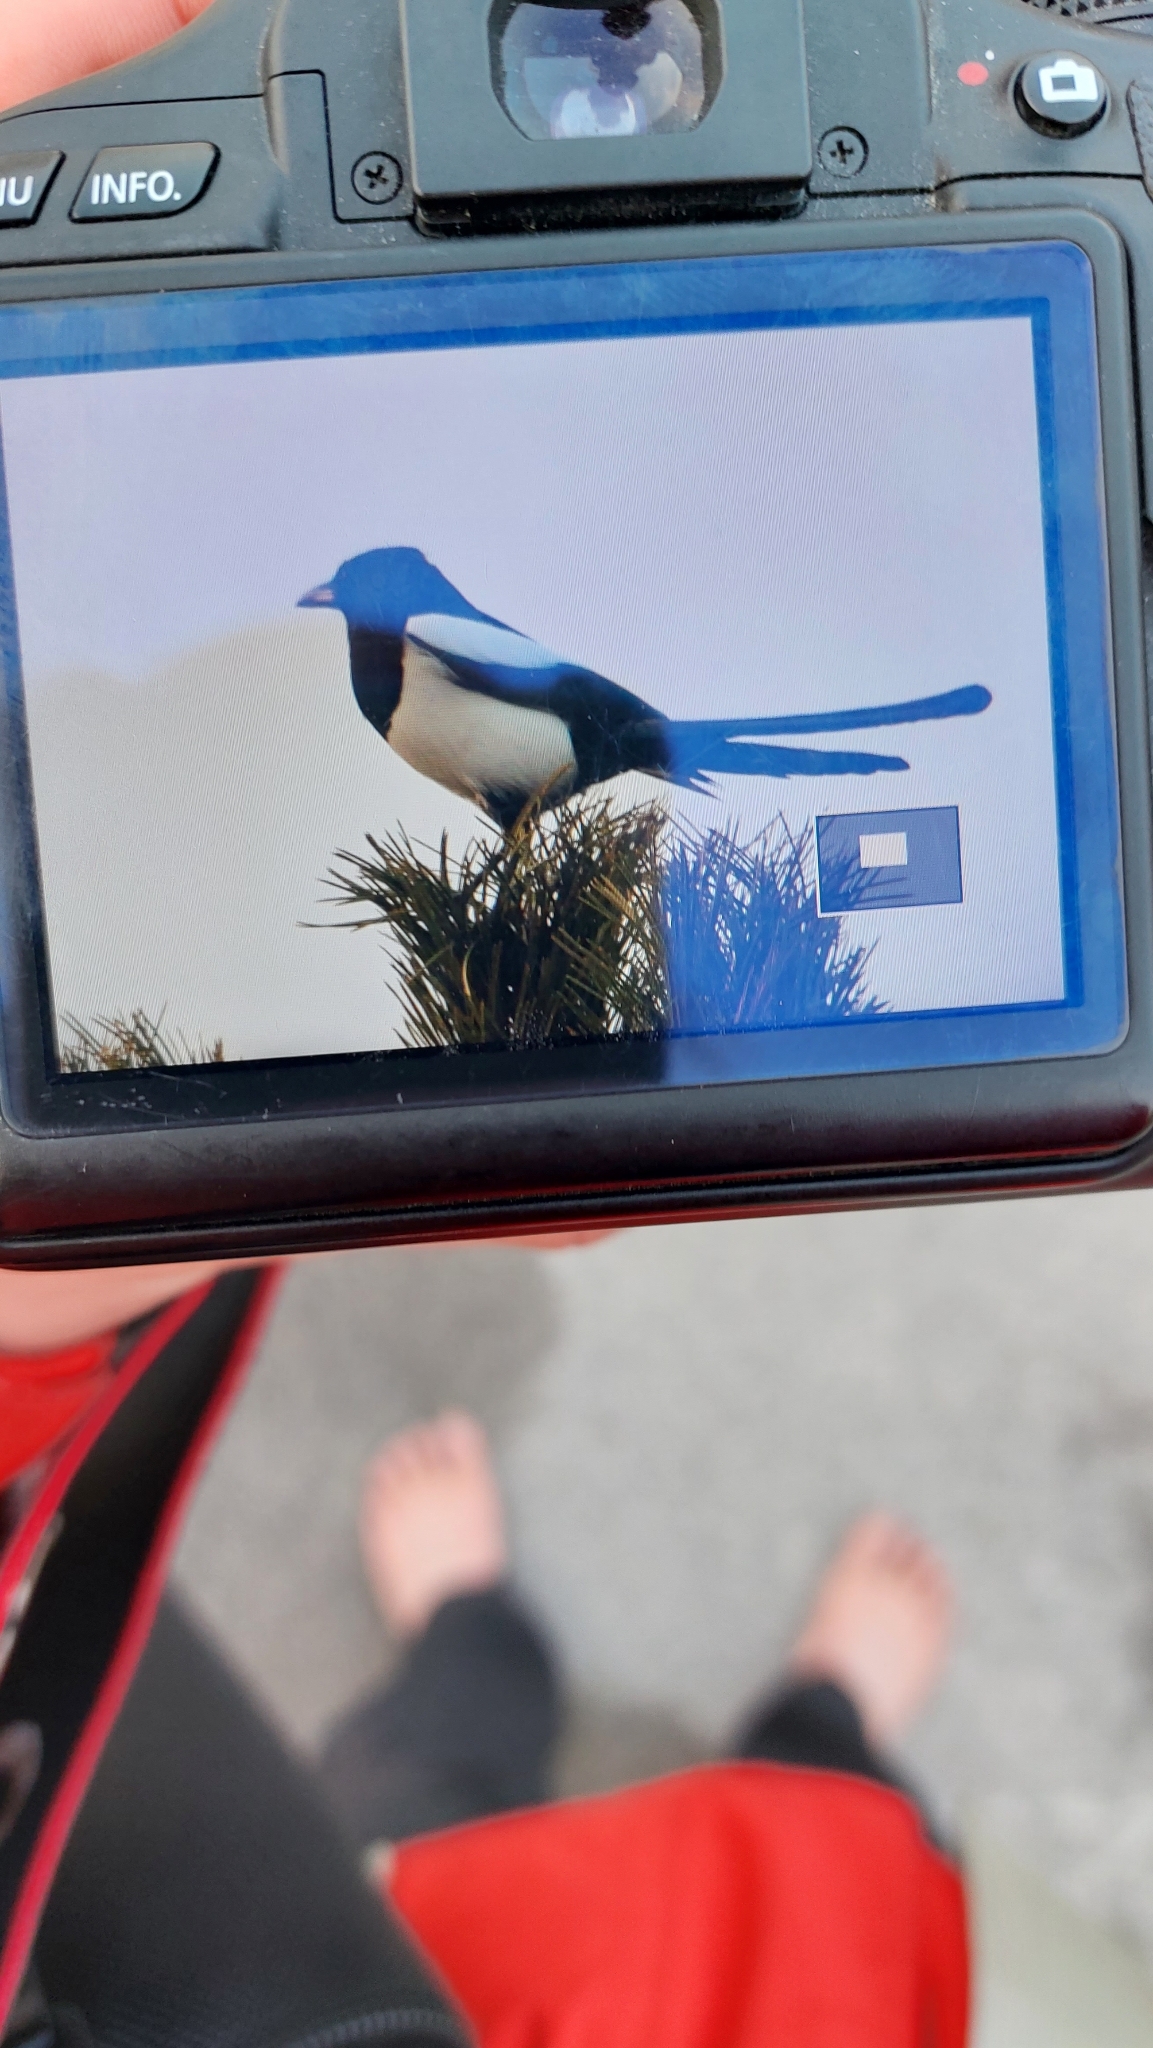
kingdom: Animalia
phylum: Chordata
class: Aves
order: Passeriformes
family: Corvidae
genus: Pica
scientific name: Pica pica
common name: Eurasian magpie
